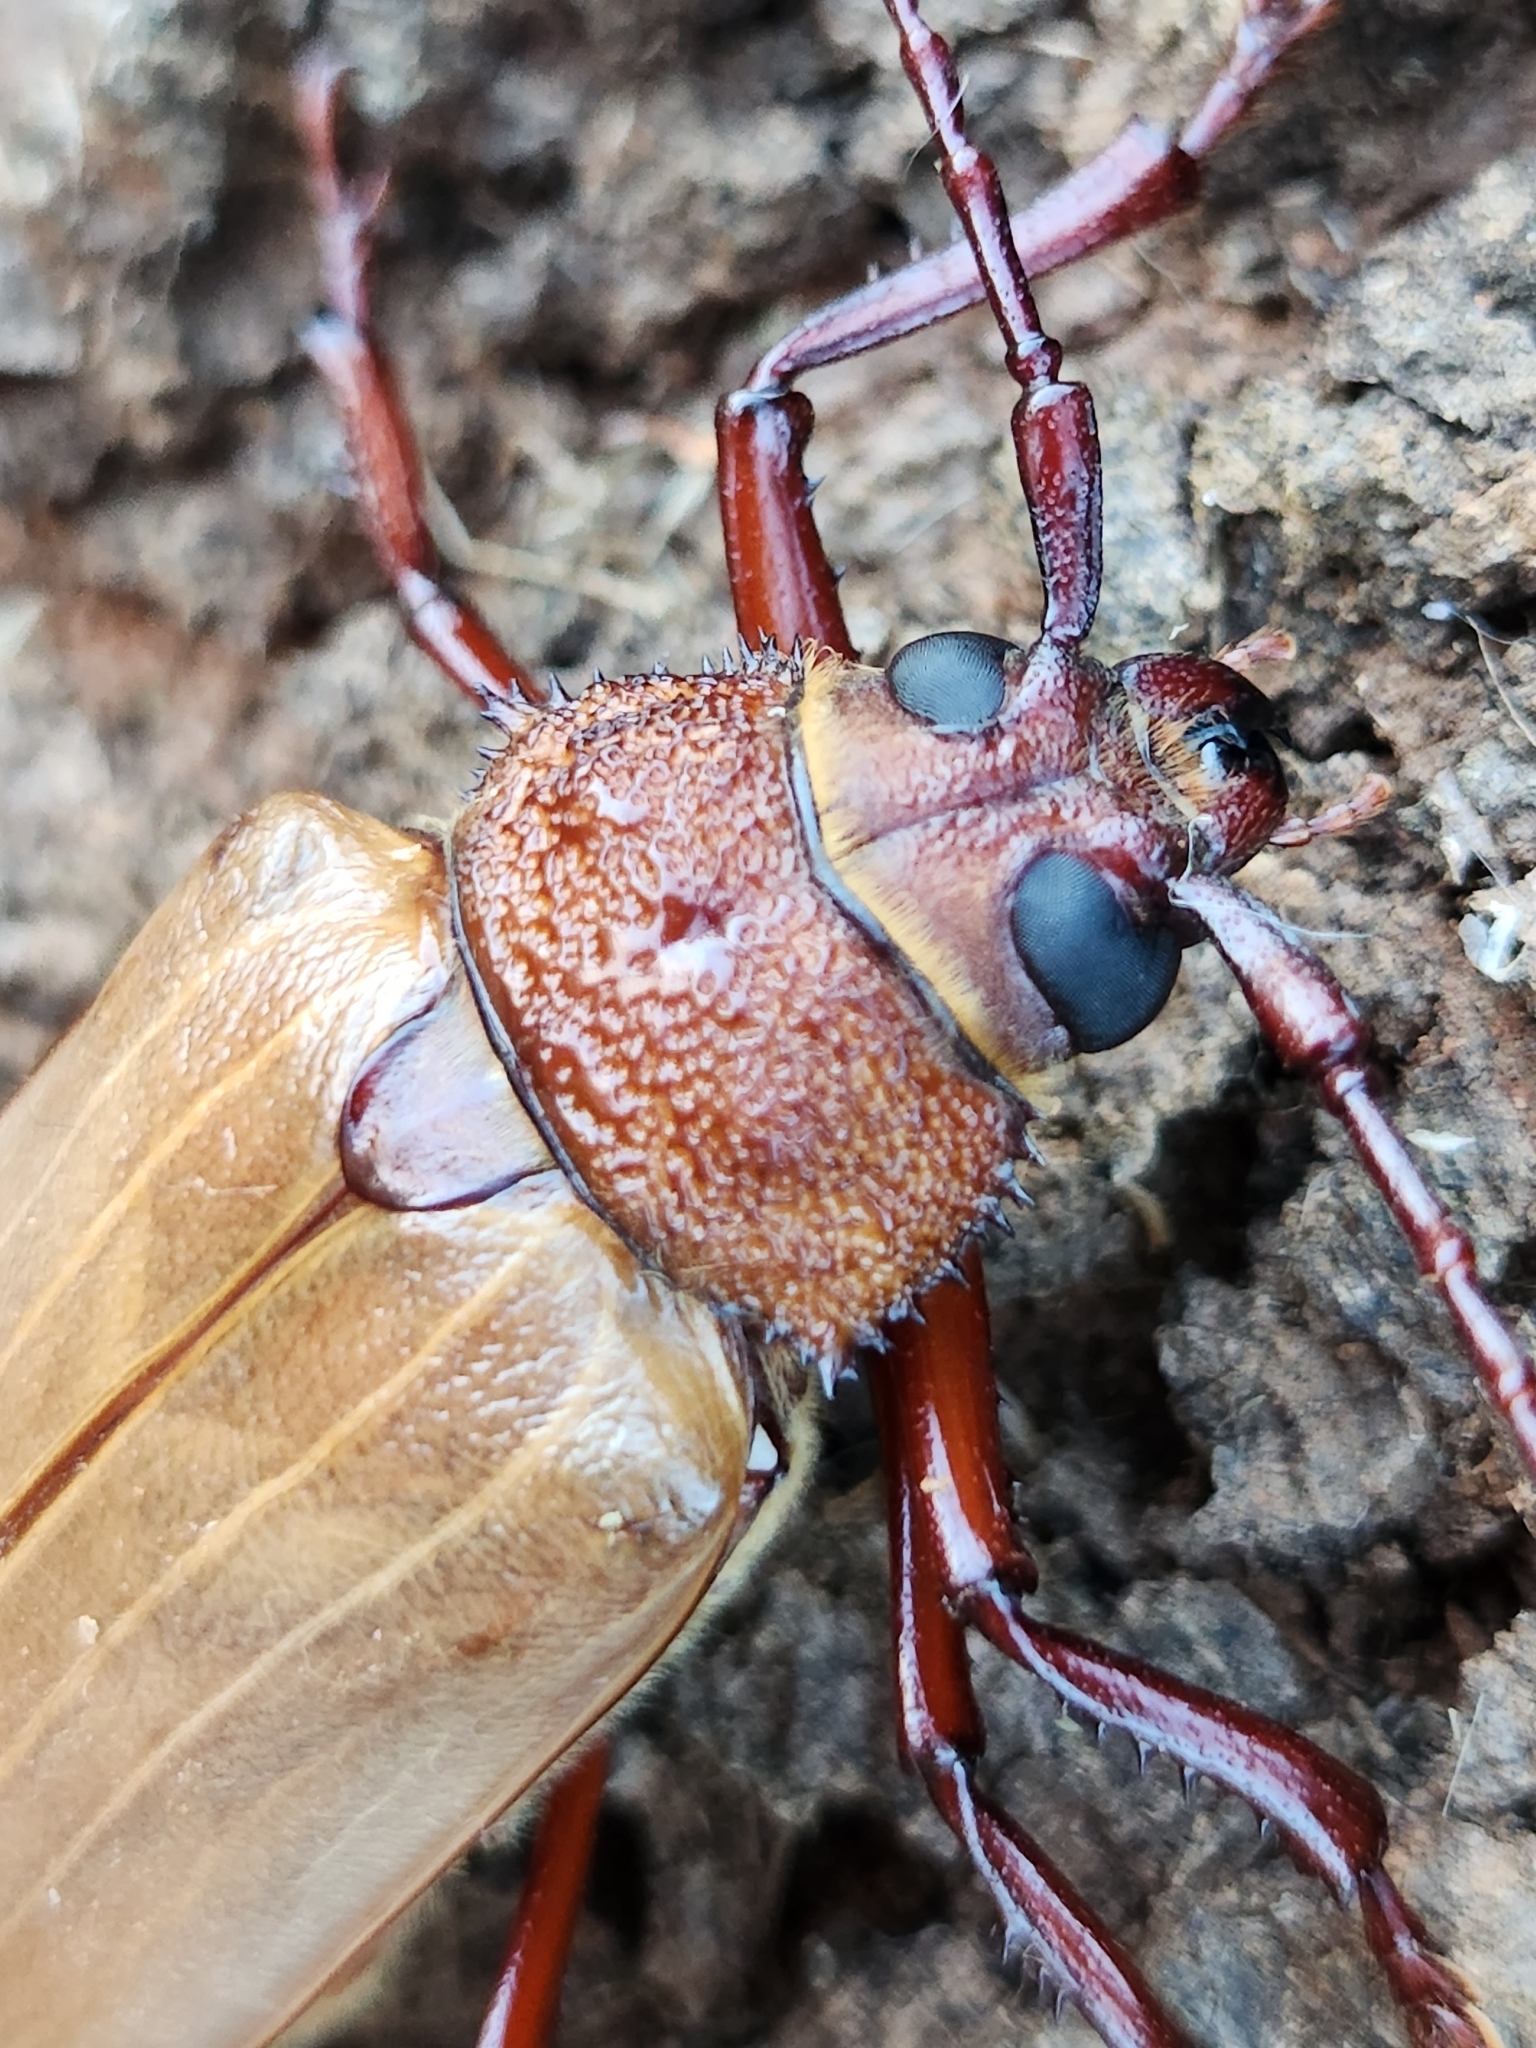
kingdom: Animalia
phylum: Arthropoda
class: Insecta
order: Coleoptera
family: Cerambycidae
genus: Agrianome
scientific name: Agrianome spinicollis
